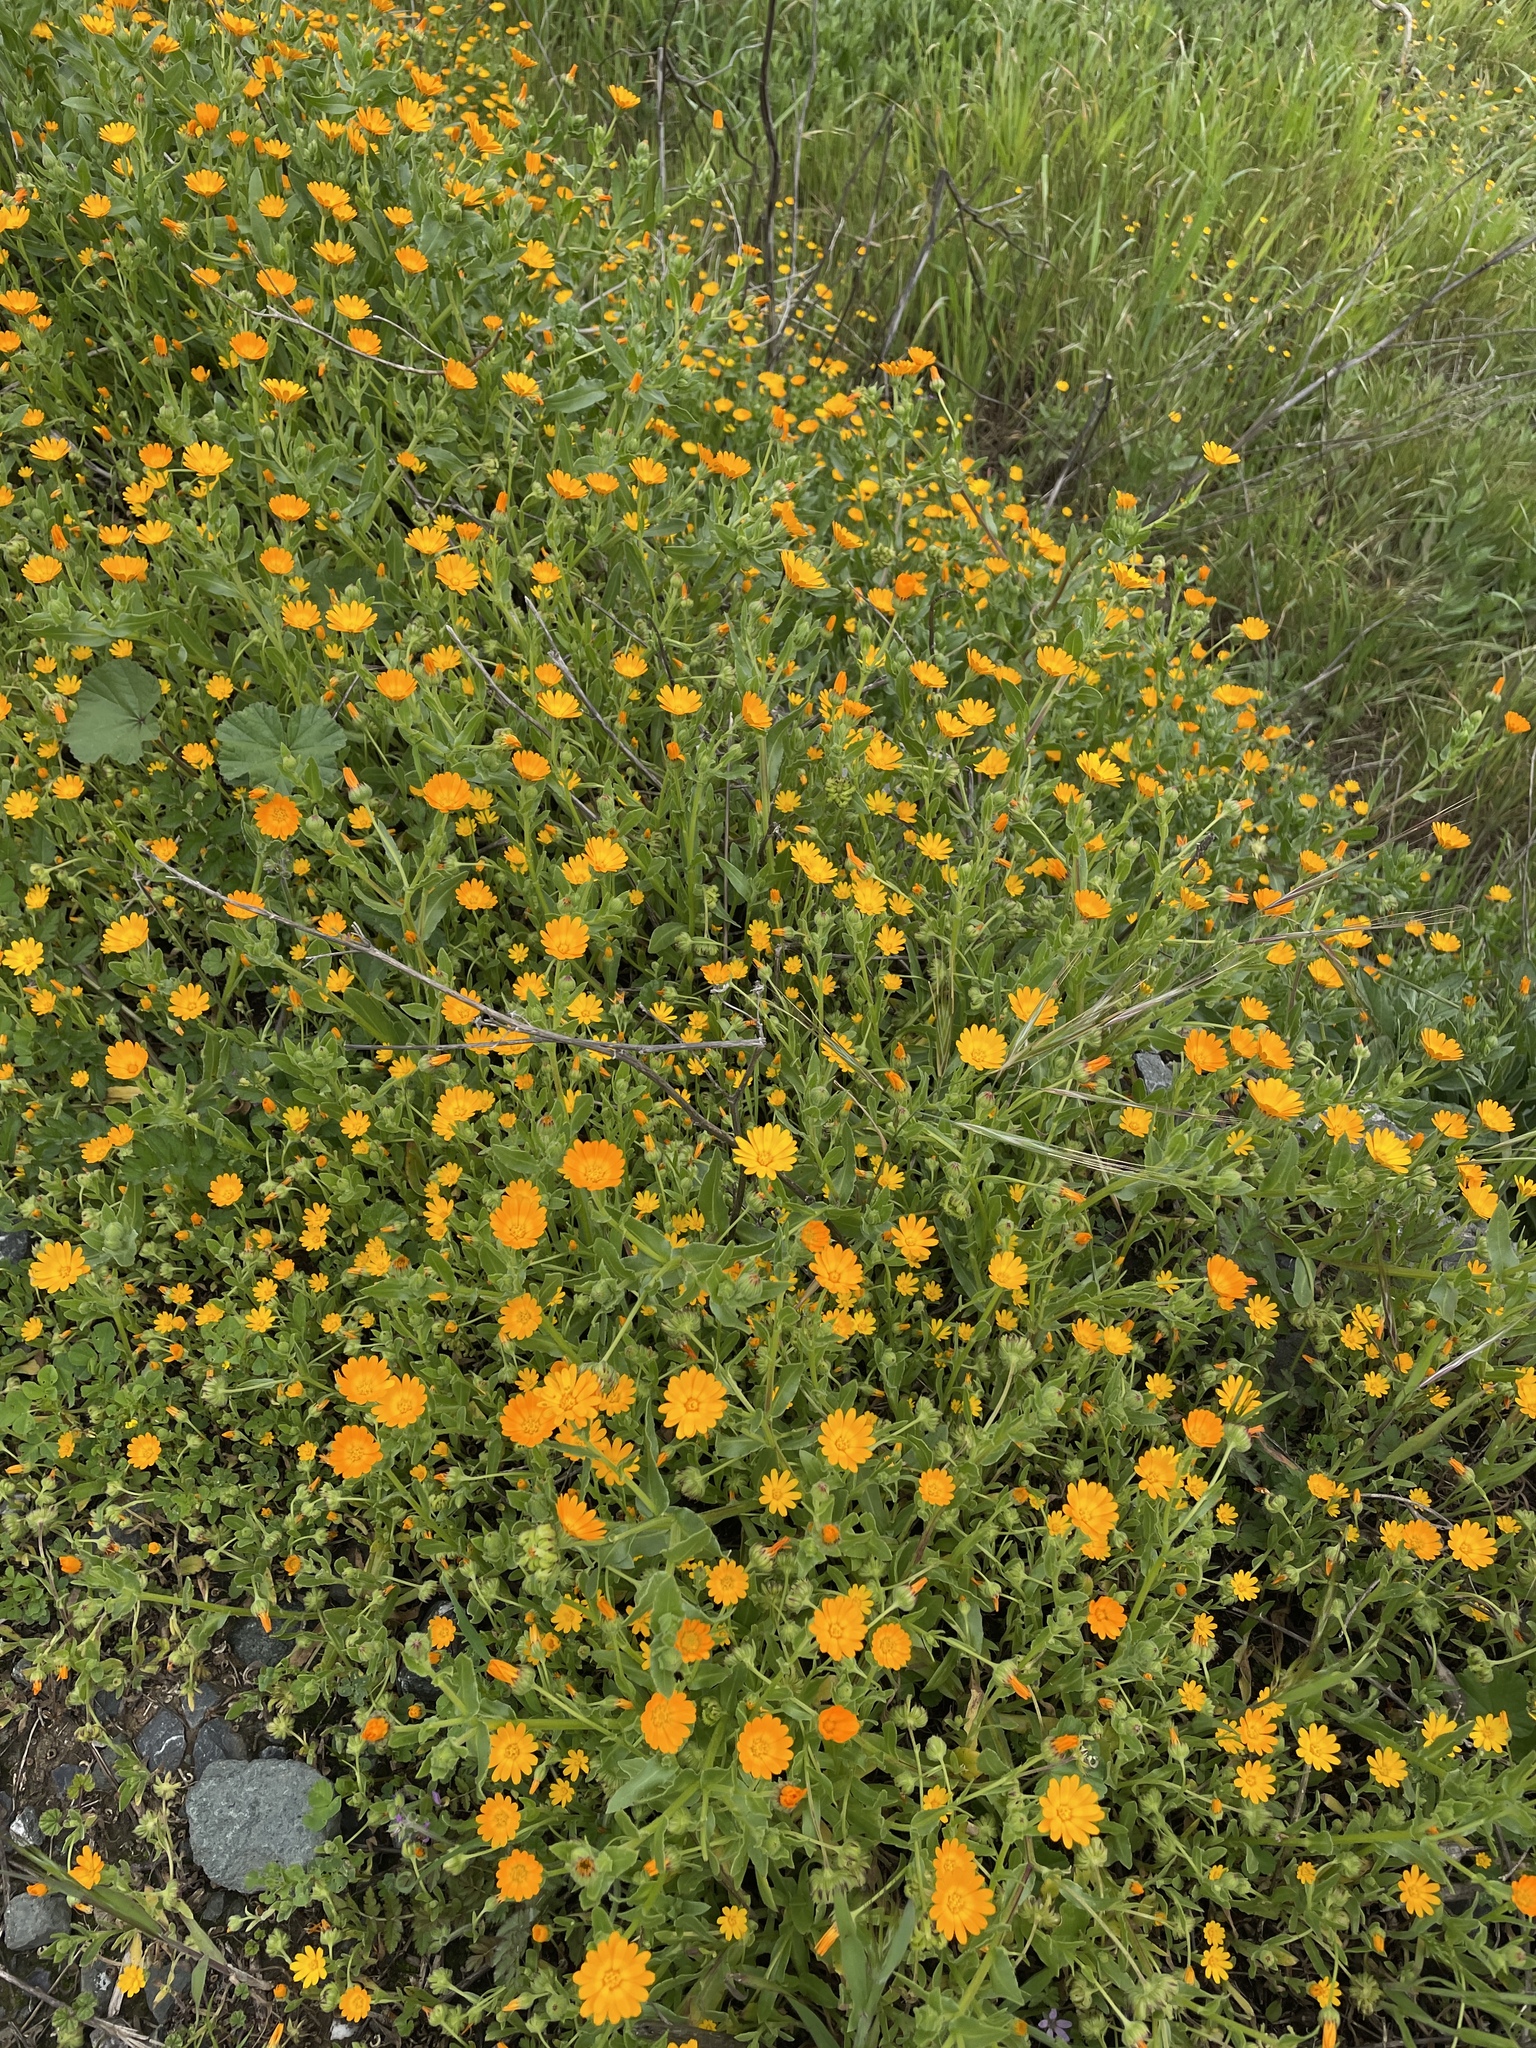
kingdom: Plantae
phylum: Tracheophyta
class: Magnoliopsida
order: Asterales
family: Asteraceae
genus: Calendula
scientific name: Calendula arvensis
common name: Field marigold
